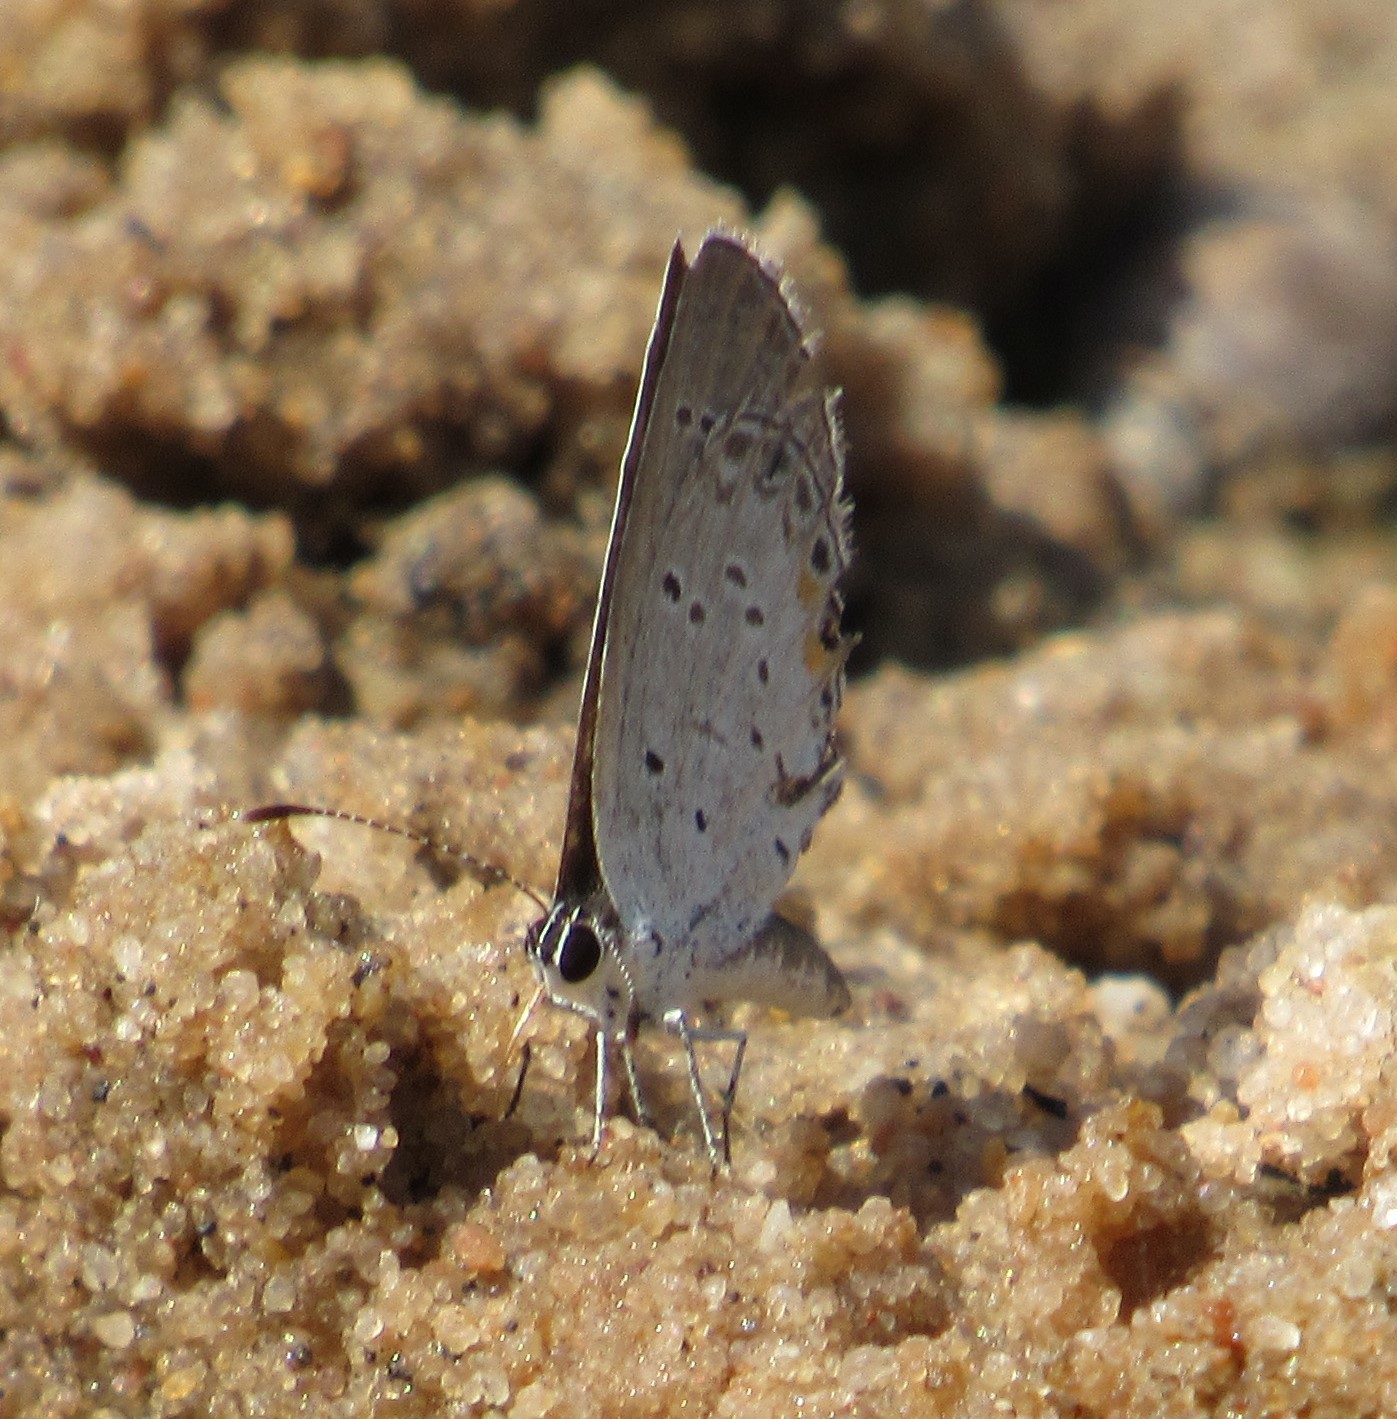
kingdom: Animalia
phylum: Arthropoda
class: Insecta
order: Lepidoptera
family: Lycaenidae
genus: Elkalyce
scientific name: Elkalyce comyntas
